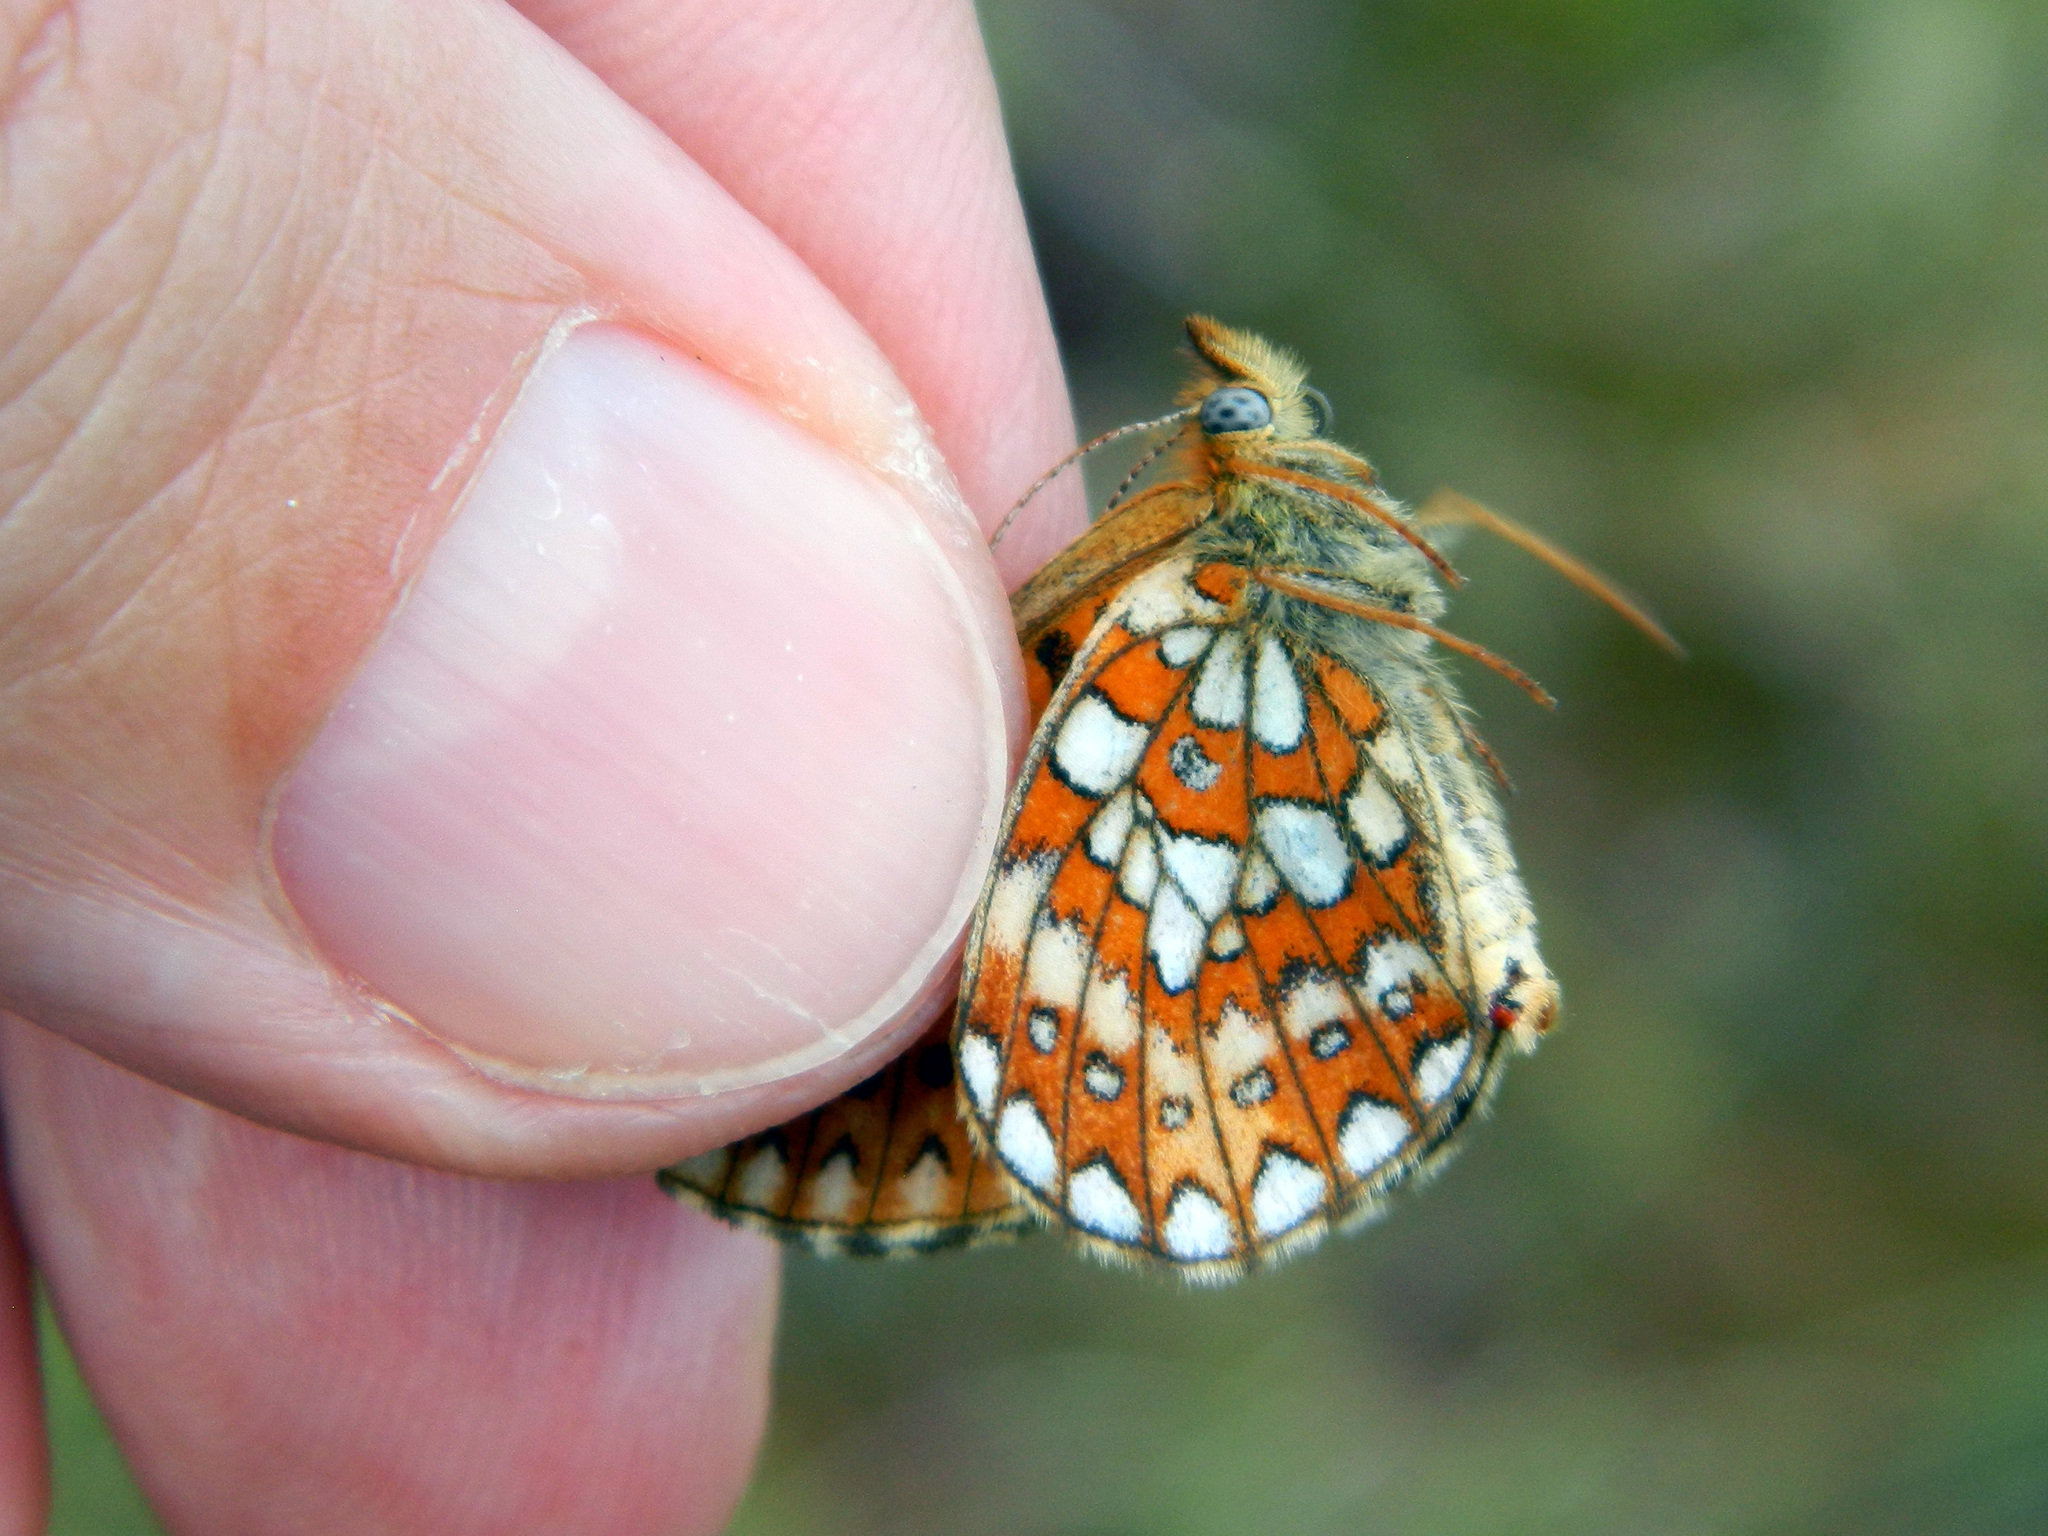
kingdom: Animalia
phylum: Arthropoda
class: Insecta
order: Lepidoptera
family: Nymphalidae
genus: Boloria
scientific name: Boloria eunomia
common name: Bog fritillary
